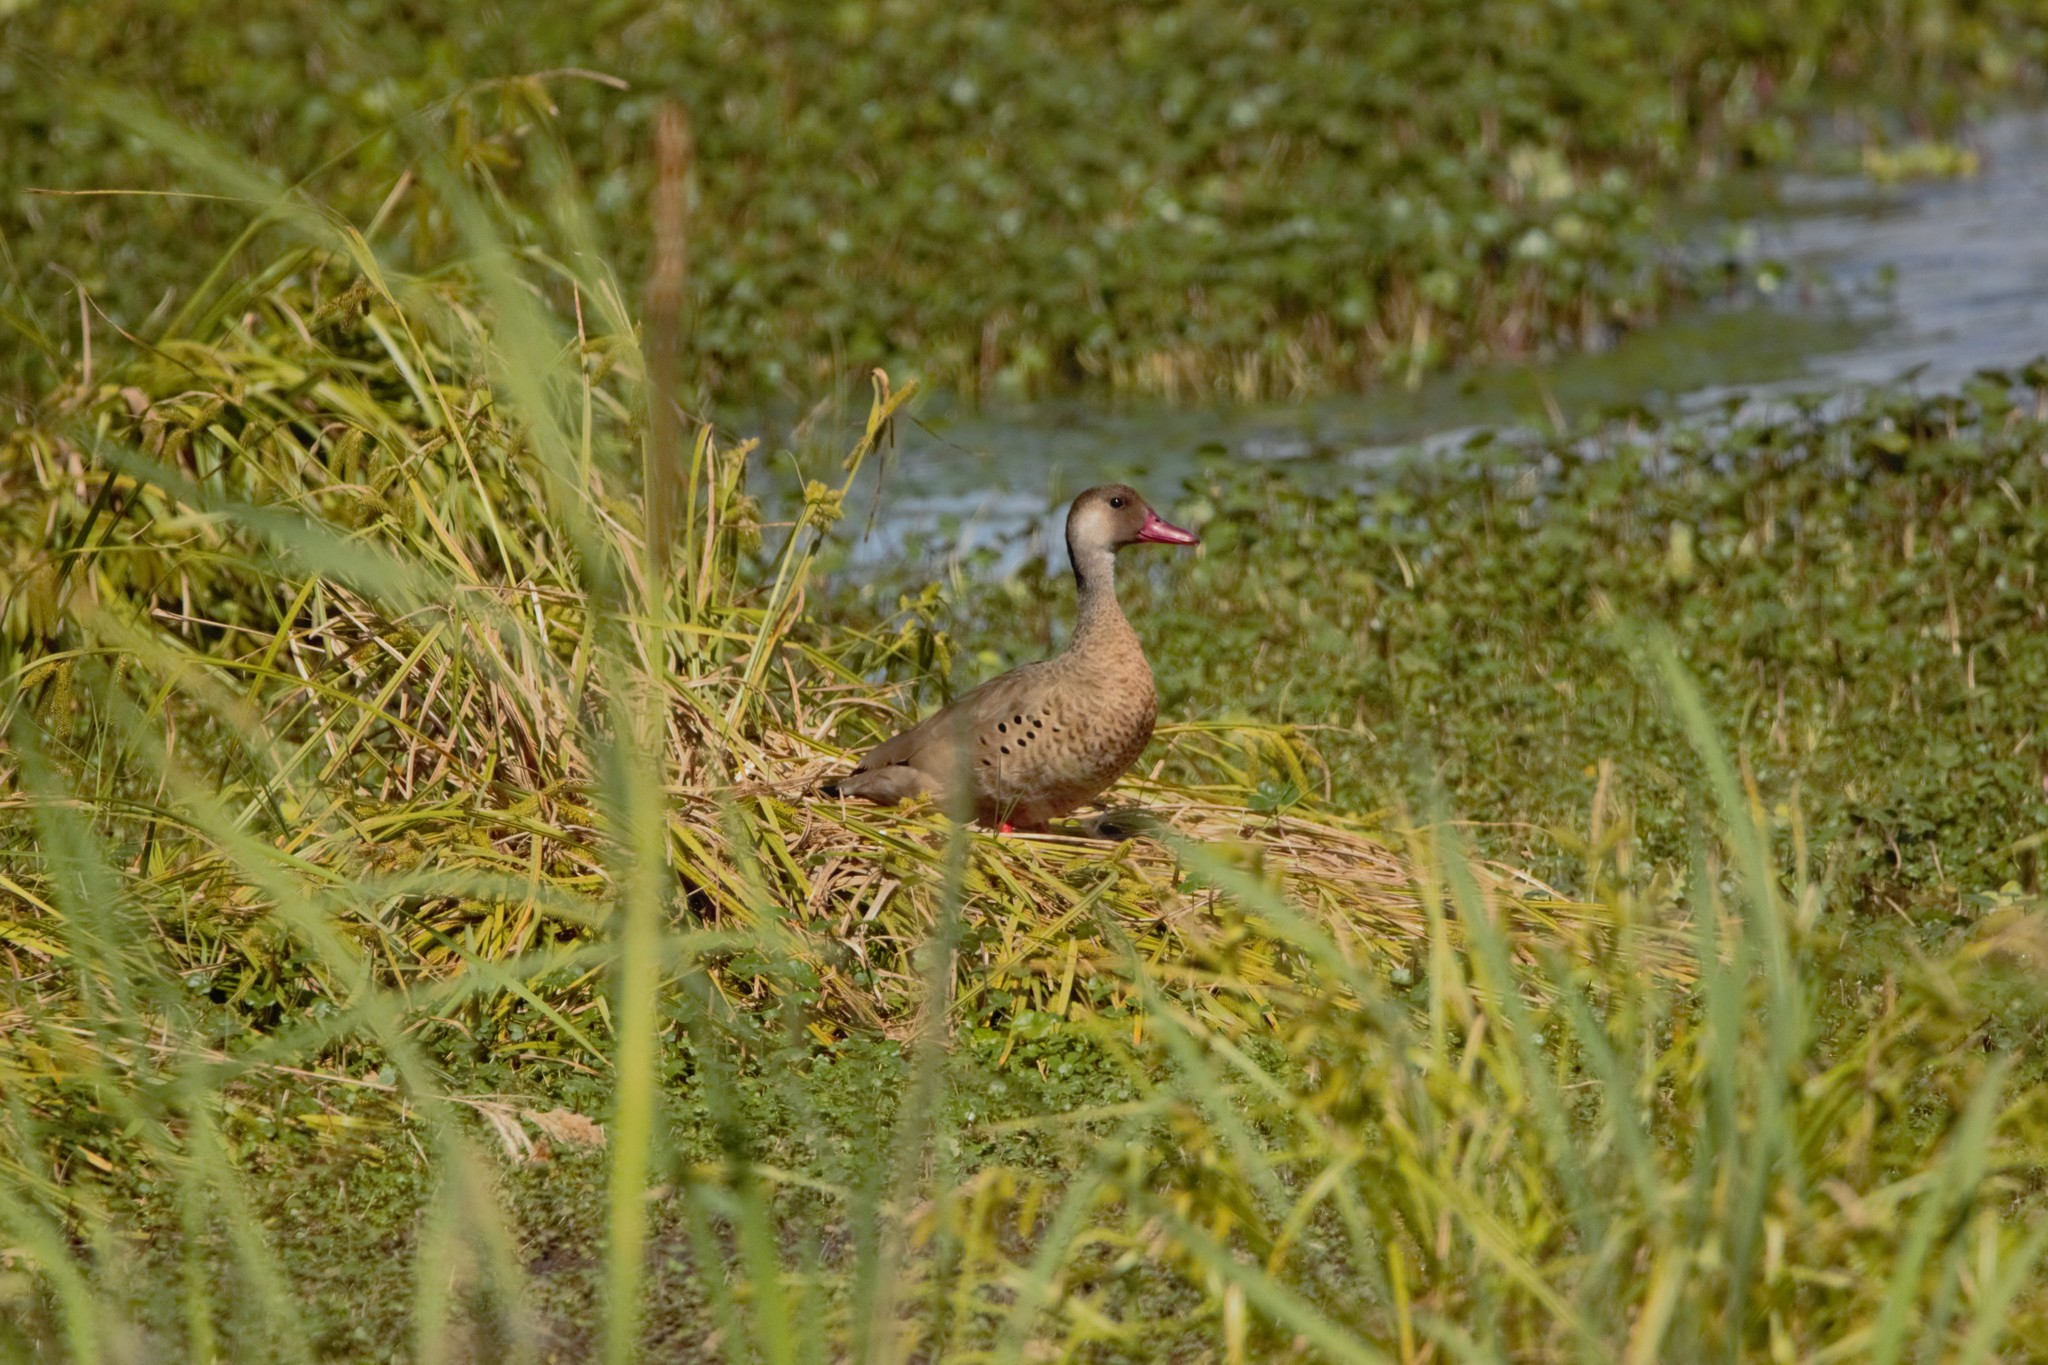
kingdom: Animalia
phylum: Chordata
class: Aves
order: Anseriformes
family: Anatidae
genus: Amazonetta
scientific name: Amazonetta brasiliensis
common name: Brazilian teal
